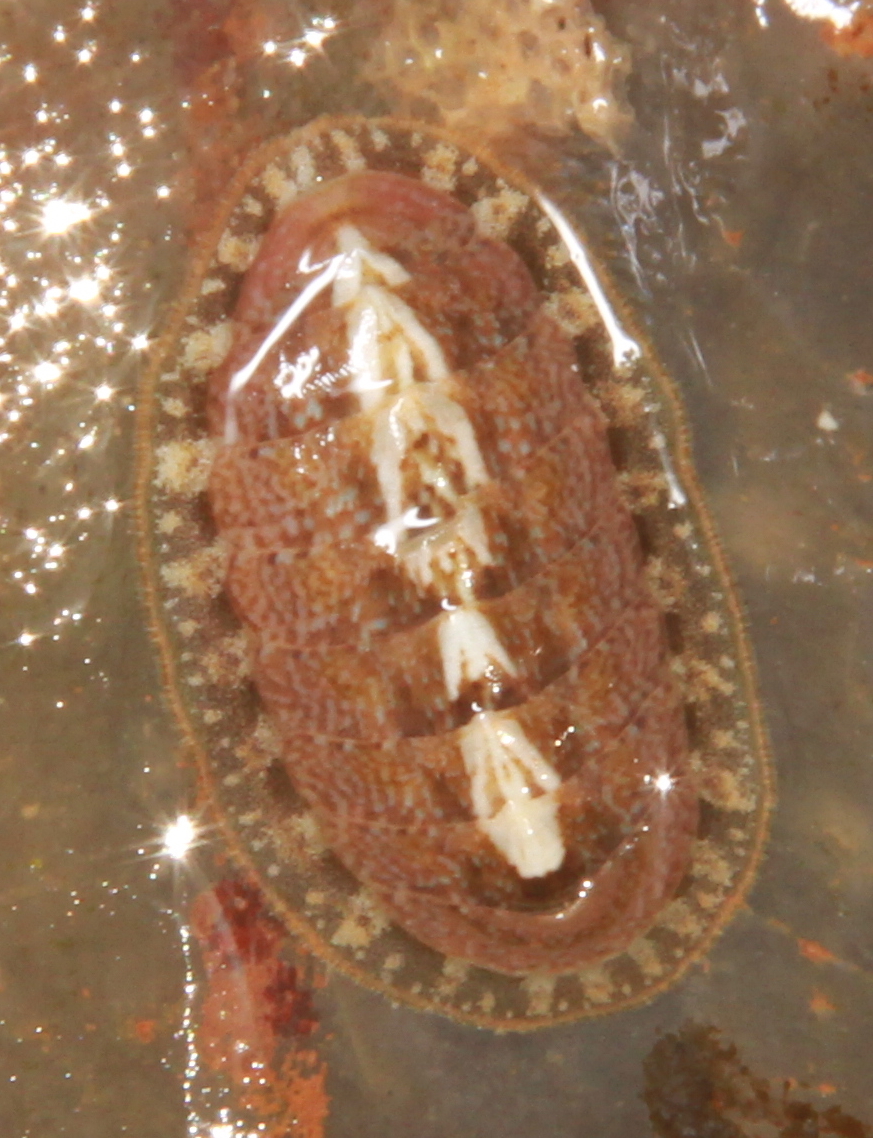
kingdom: Animalia
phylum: Mollusca
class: Polyplacophora
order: Chitonida
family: Tonicellidae
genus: Lepidochitona
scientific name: Lepidochitona cinerea
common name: Cinereous chiton
